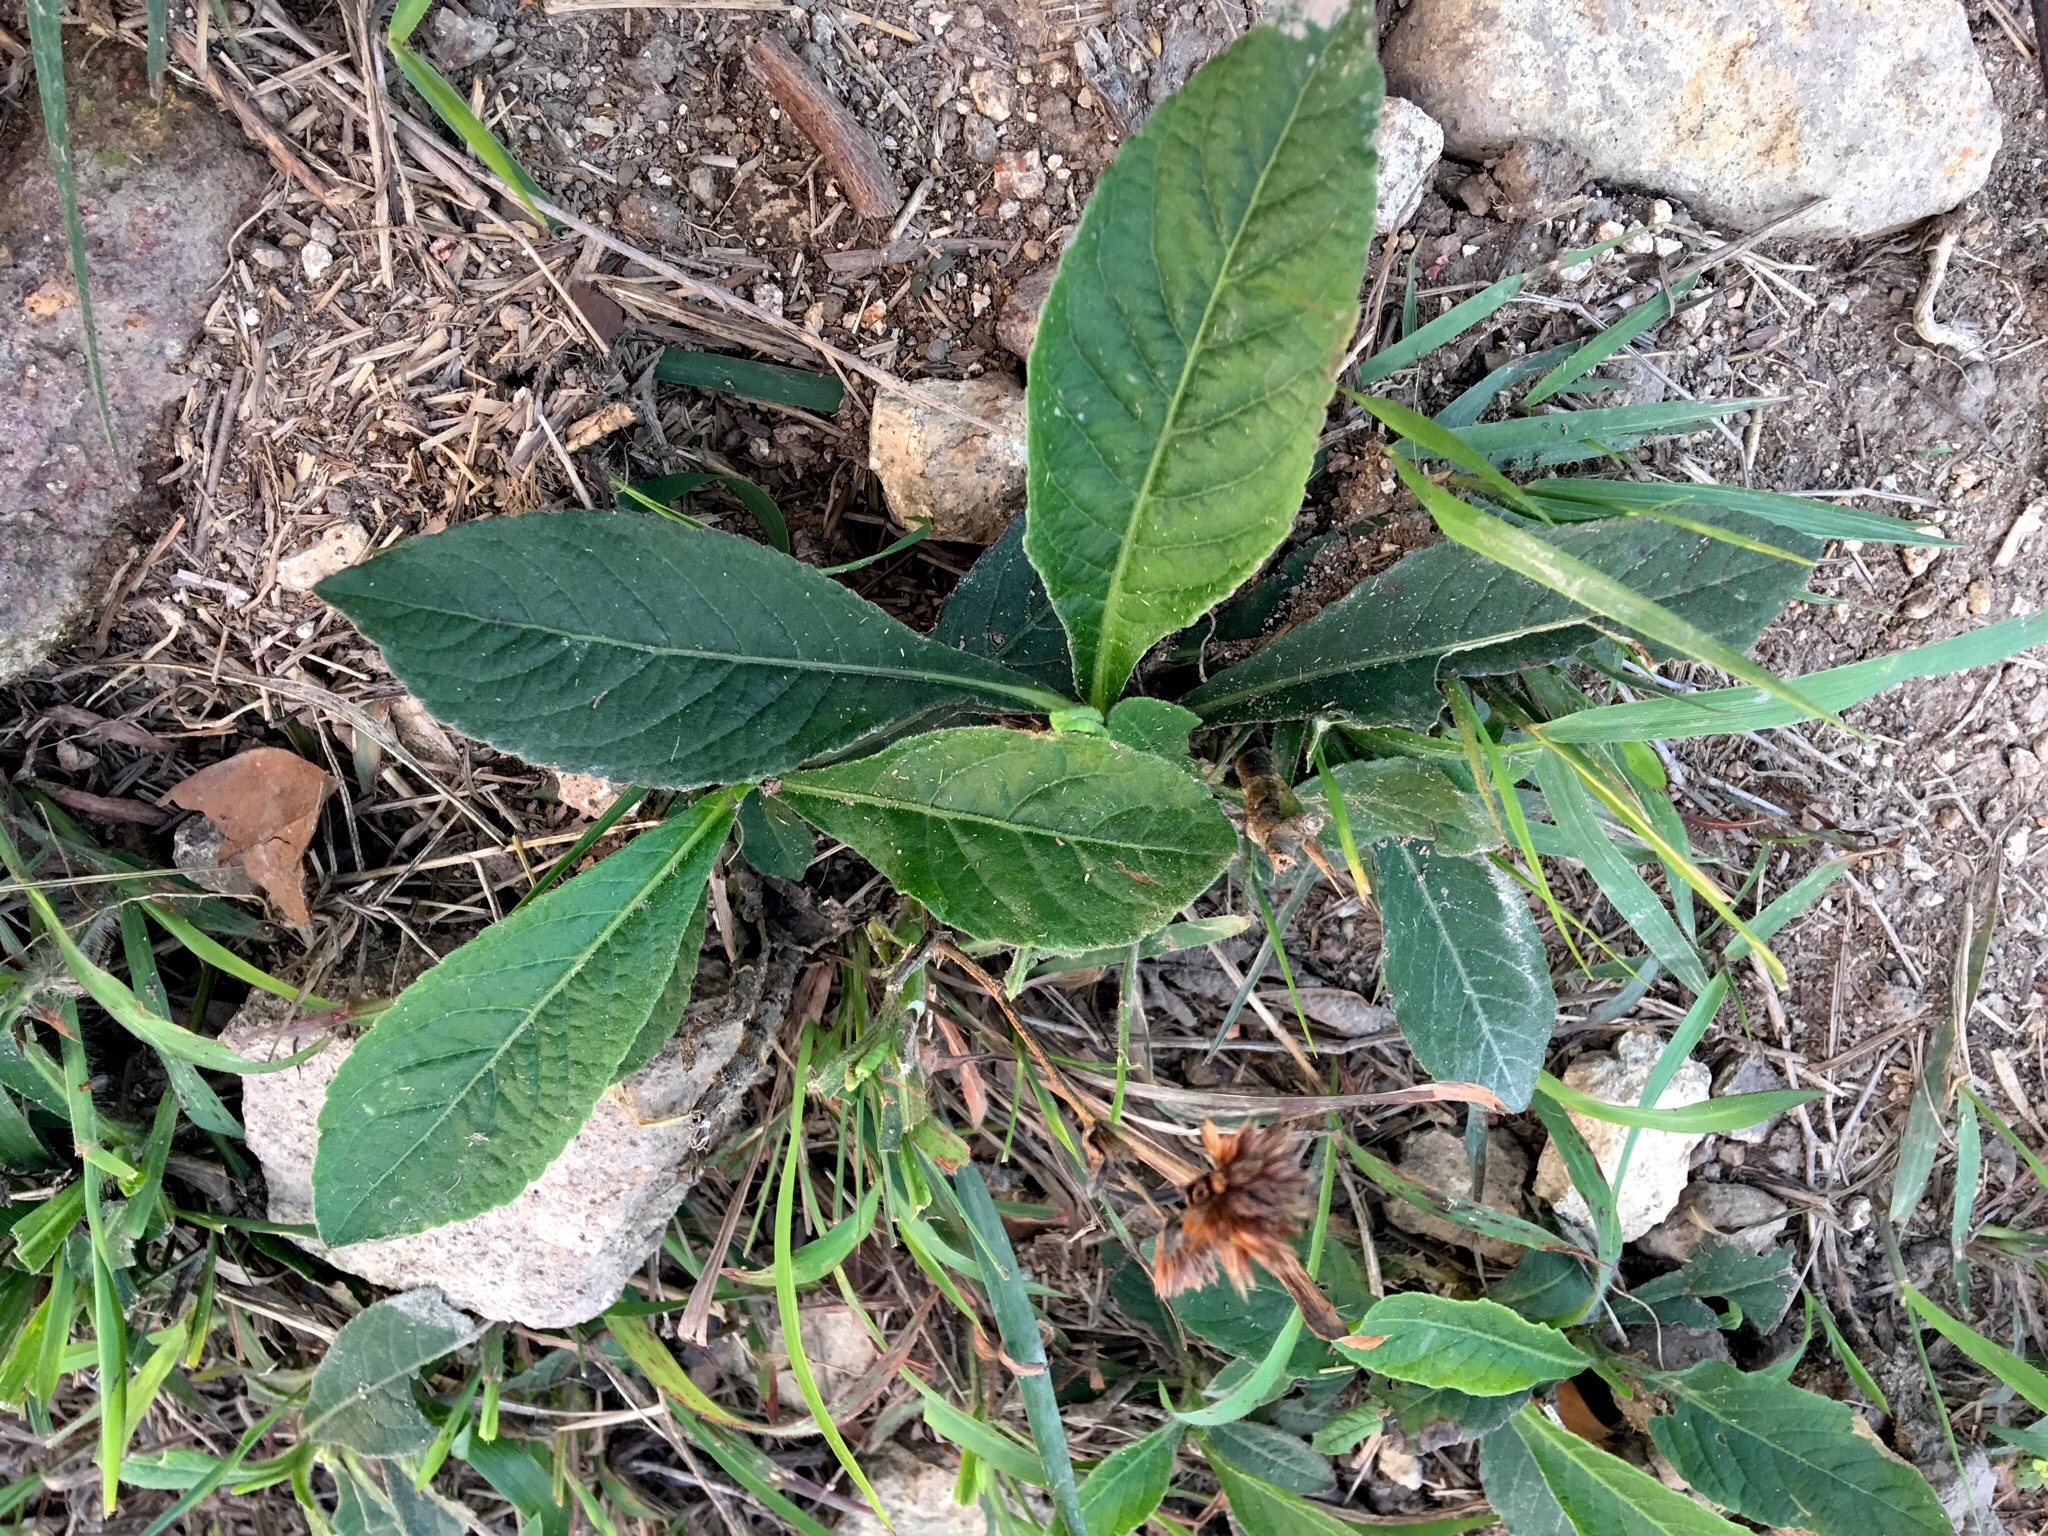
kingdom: Plantae
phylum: Tracheophyta
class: Magnoliopsida
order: Asterales
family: Asteraceae
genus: Elephantopus
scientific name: Elephantopus scaber
